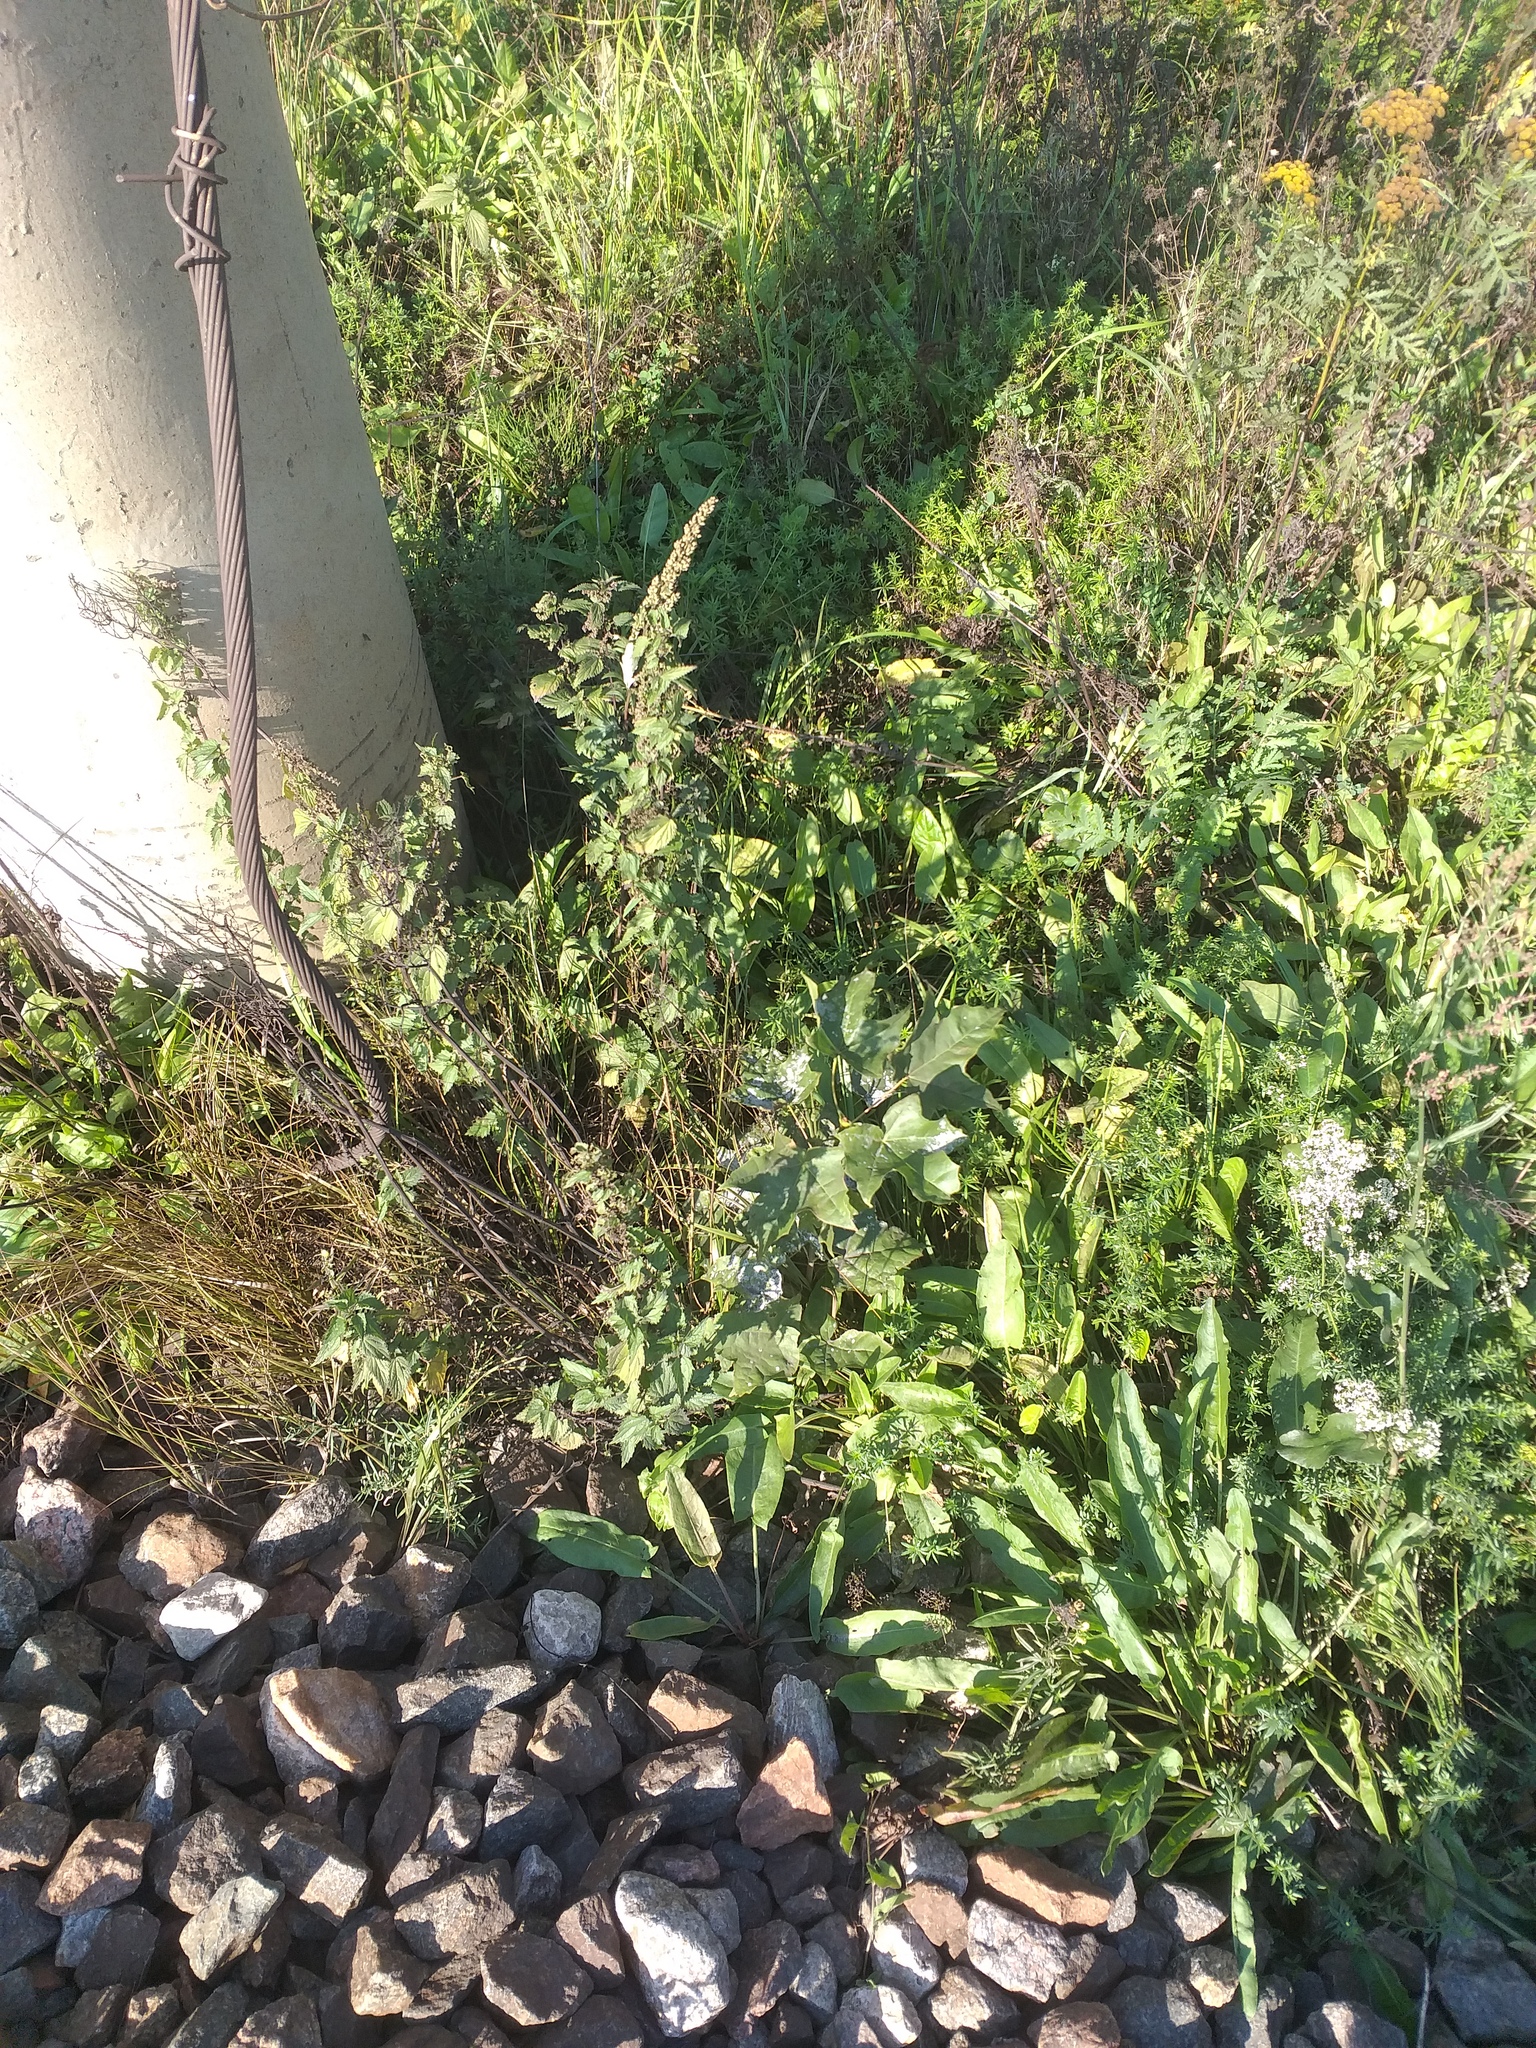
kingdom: Plantae
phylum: Tracheophyta
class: Magnoliopsida
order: Sapindales
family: Sapindaceae
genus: Acer
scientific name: Acer platanoides
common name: Norway maple
